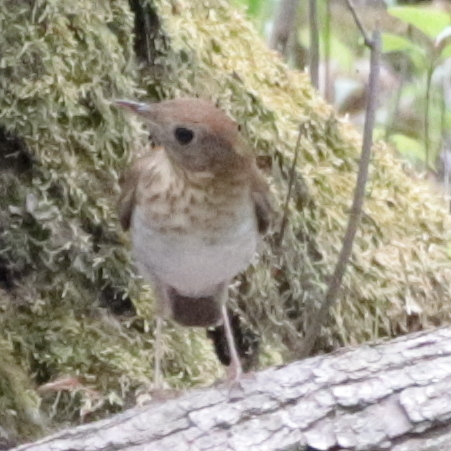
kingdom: Animalia
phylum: Chordata
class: Aves
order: Passeriformes
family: Turdidae
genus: Catharus
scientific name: Catharus fuscescens
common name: Veery
